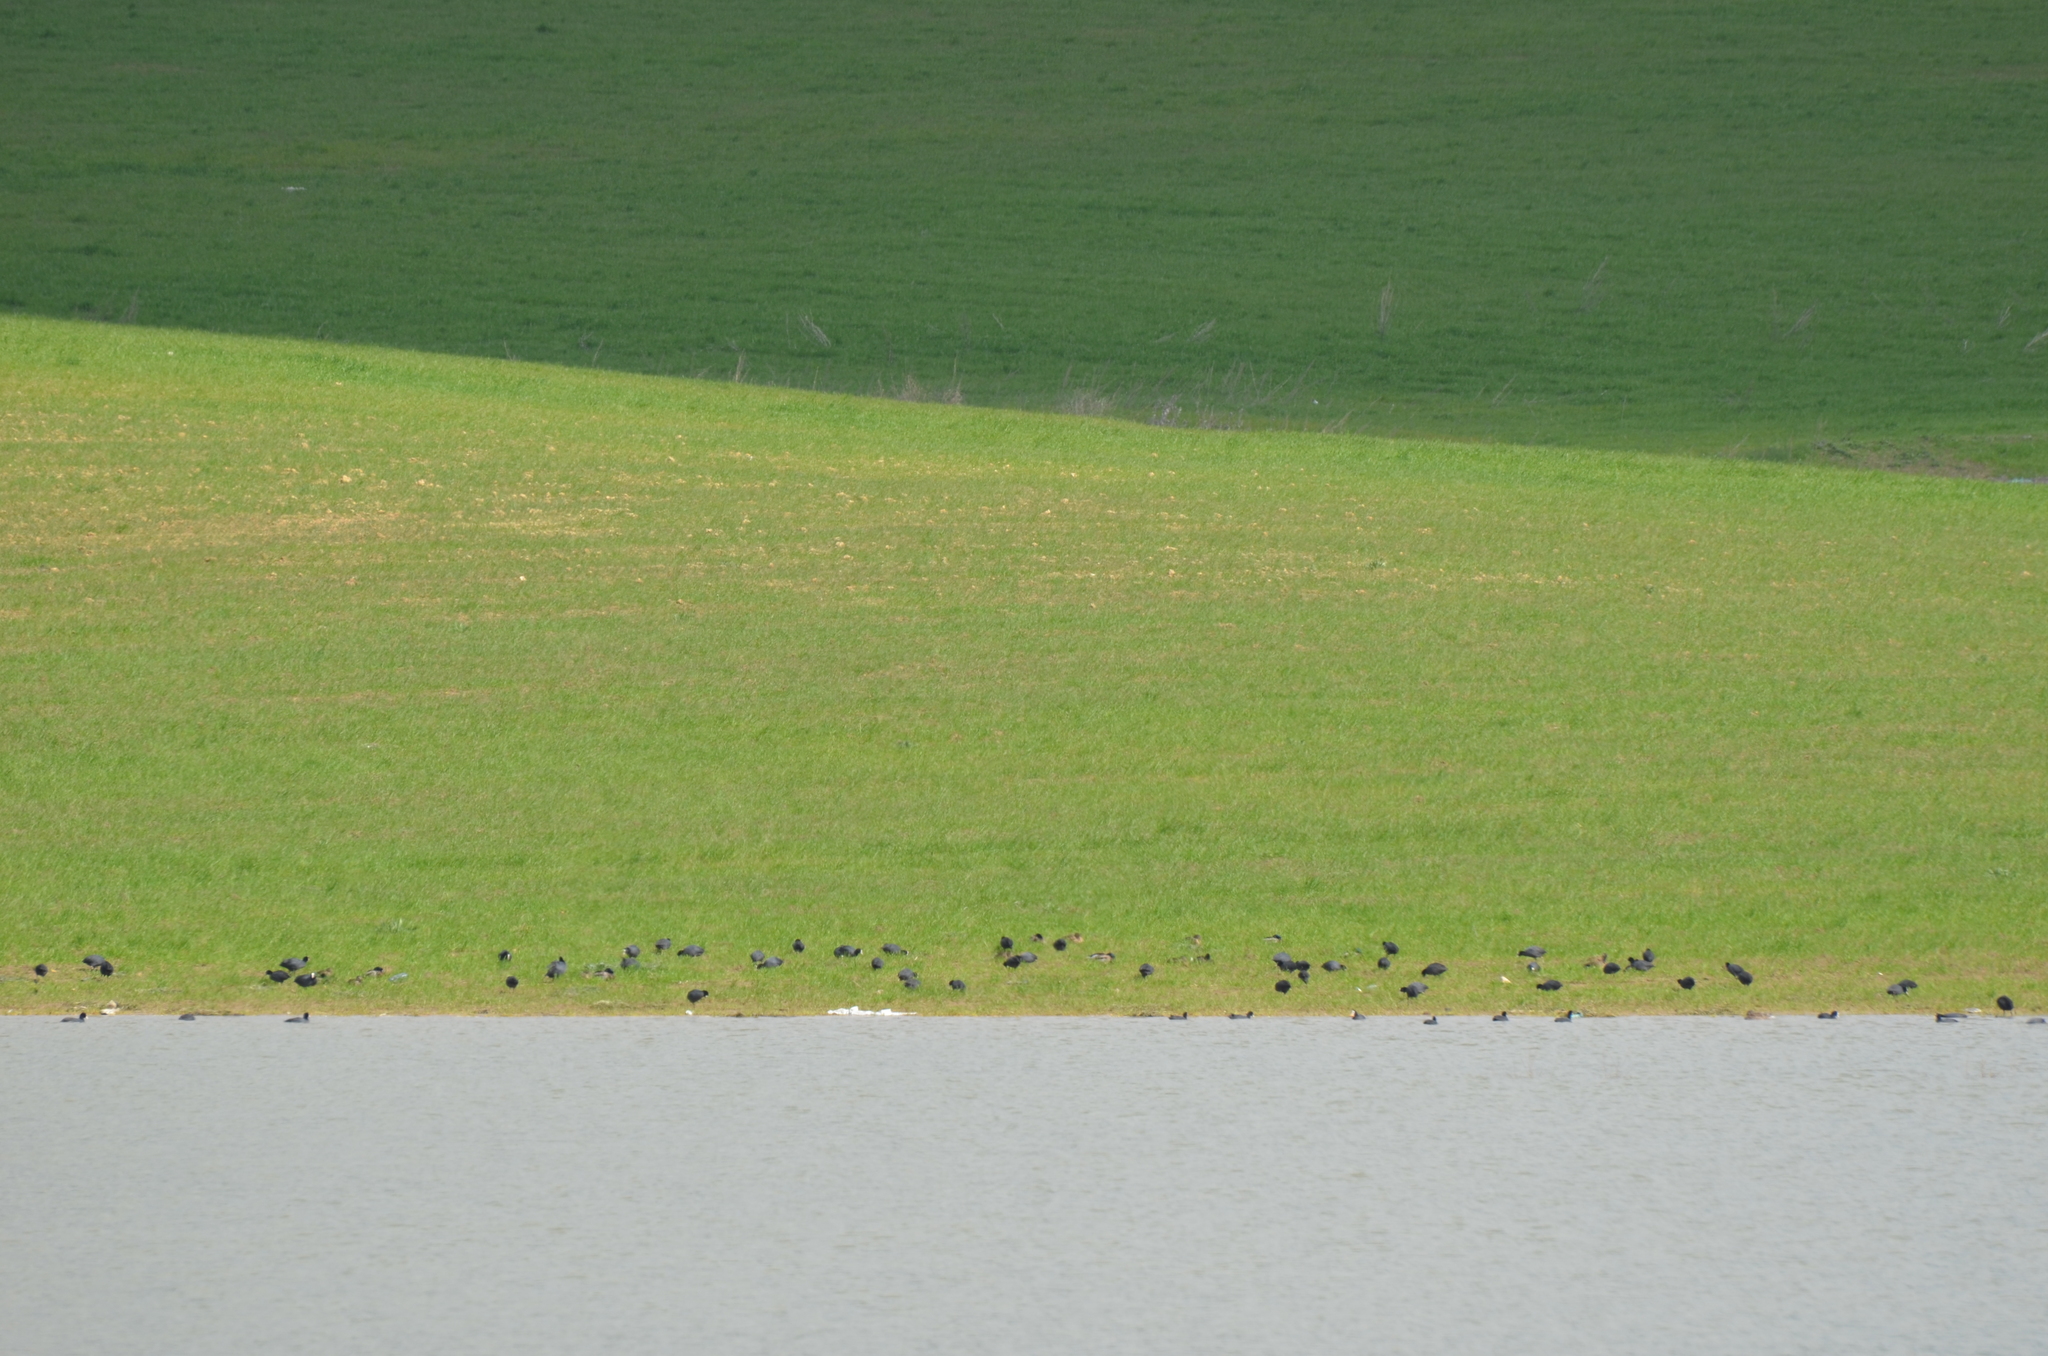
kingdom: Animalia
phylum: Chordata
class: Aves
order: Gruiformes
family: Rallidae
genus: Fulica
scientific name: Fulica atra
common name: Eurasian coot
